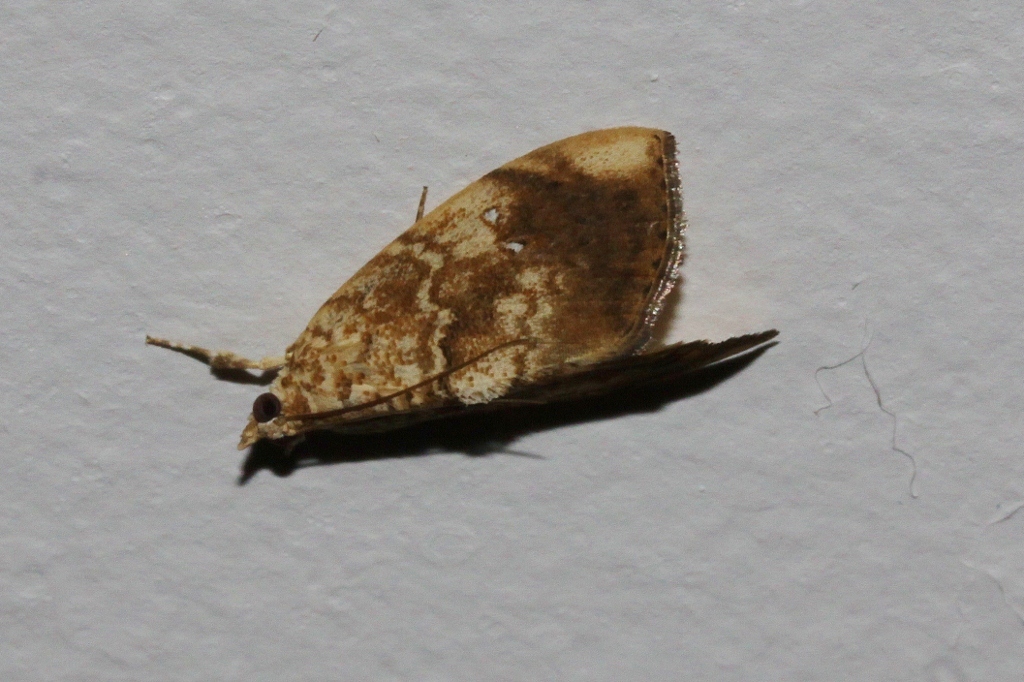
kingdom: Animalia
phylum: Arthropoda
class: Insecta
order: Lepidoptera
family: Crambidae
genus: Crocidolomia
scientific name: Crocidolomia pavonana
